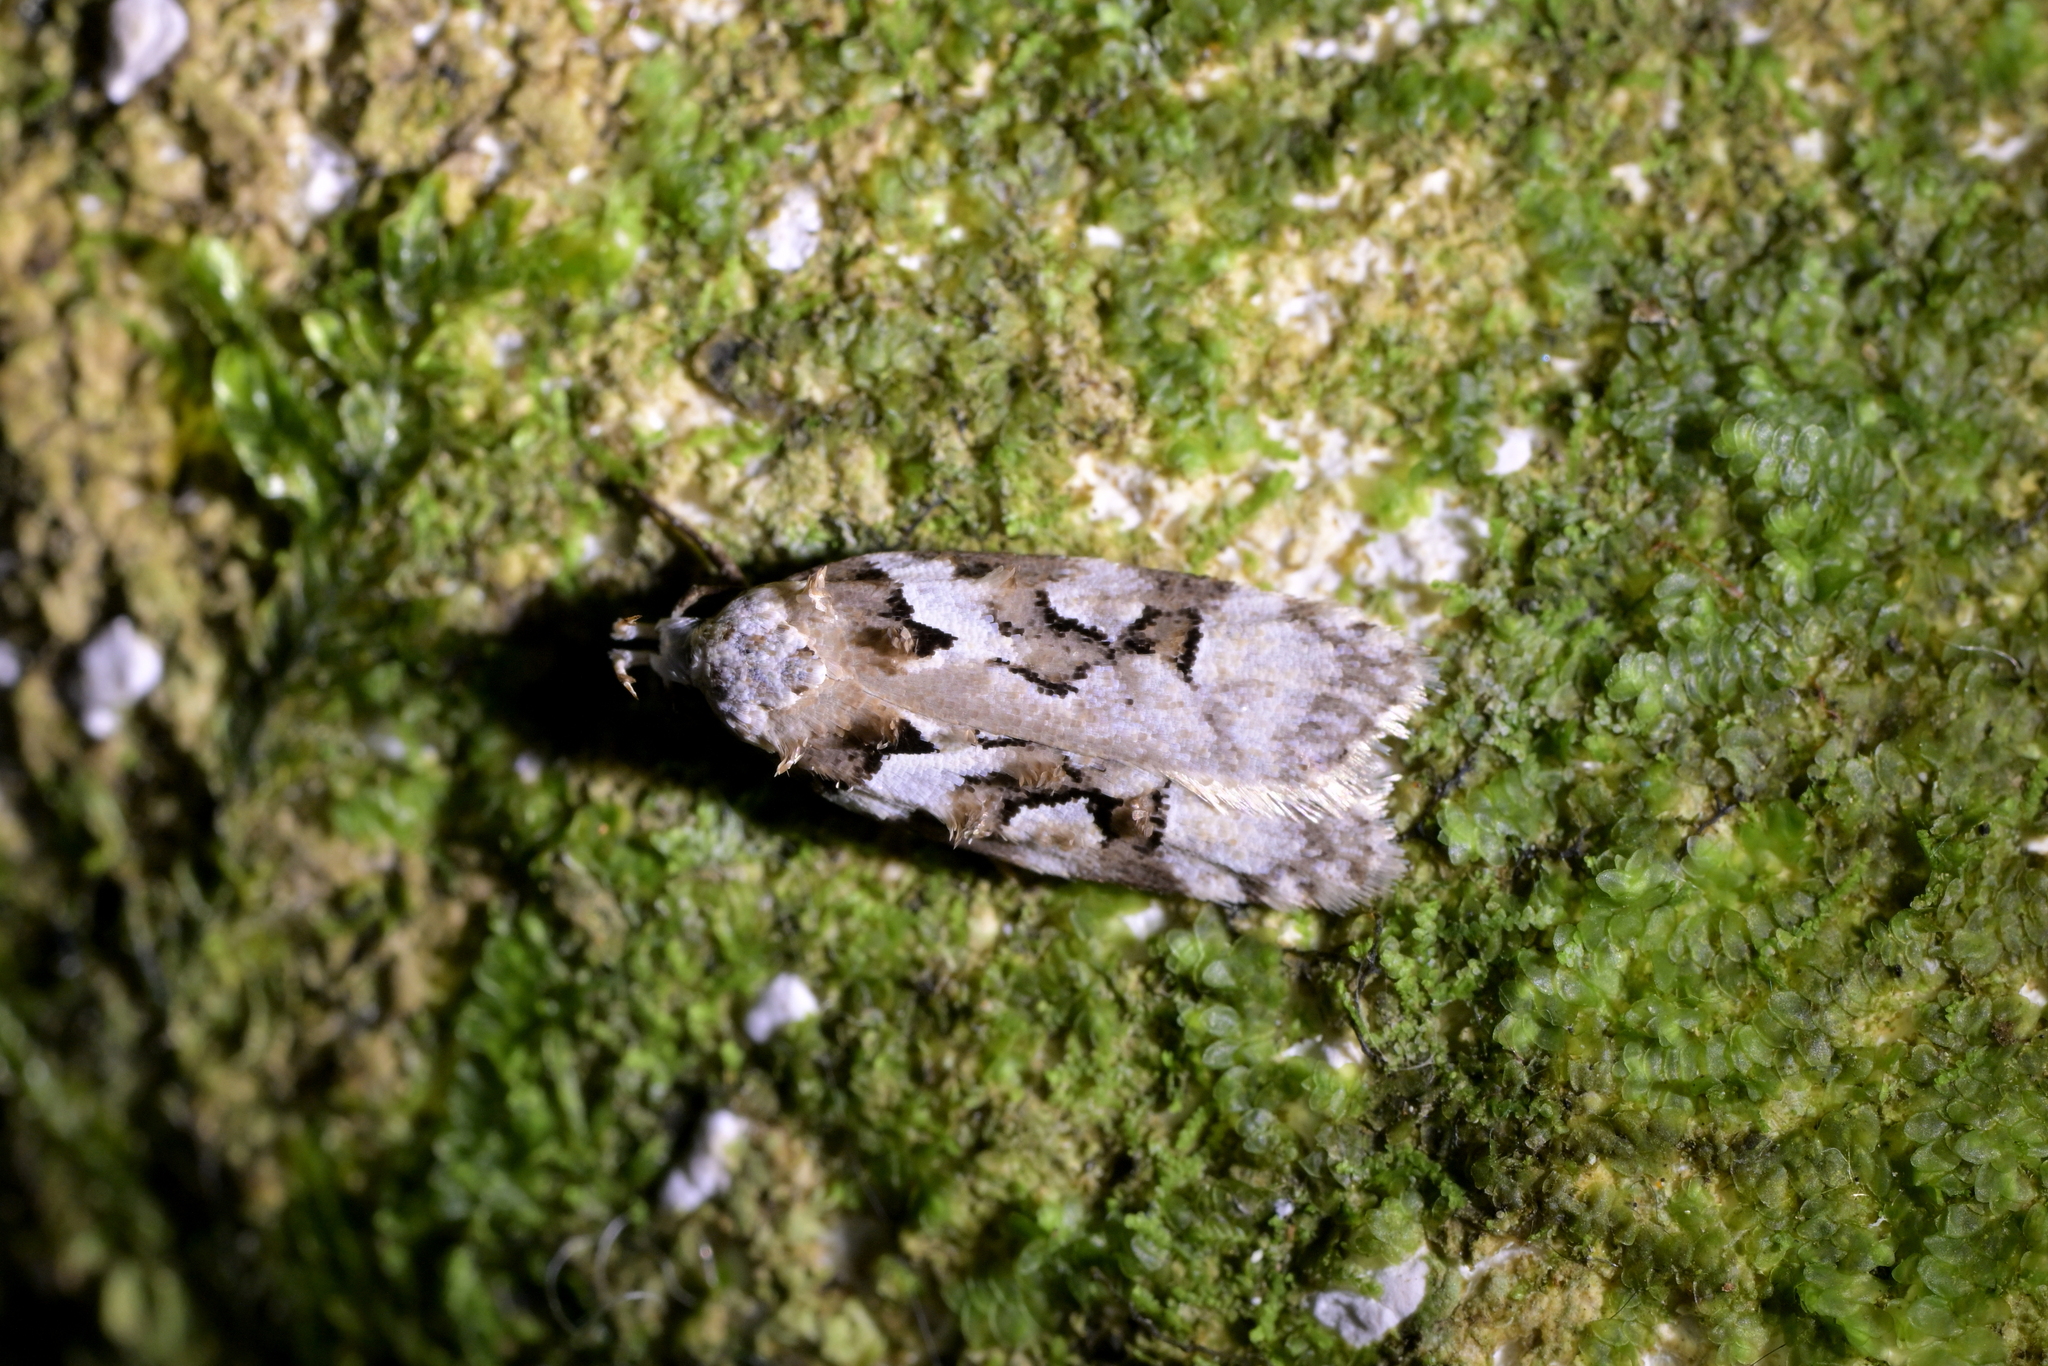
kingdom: Animalia
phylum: Arthropoda
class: Insecta
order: Lepidoptera
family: Oecophoridae
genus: Izatha
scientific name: Izatha epiphanes
